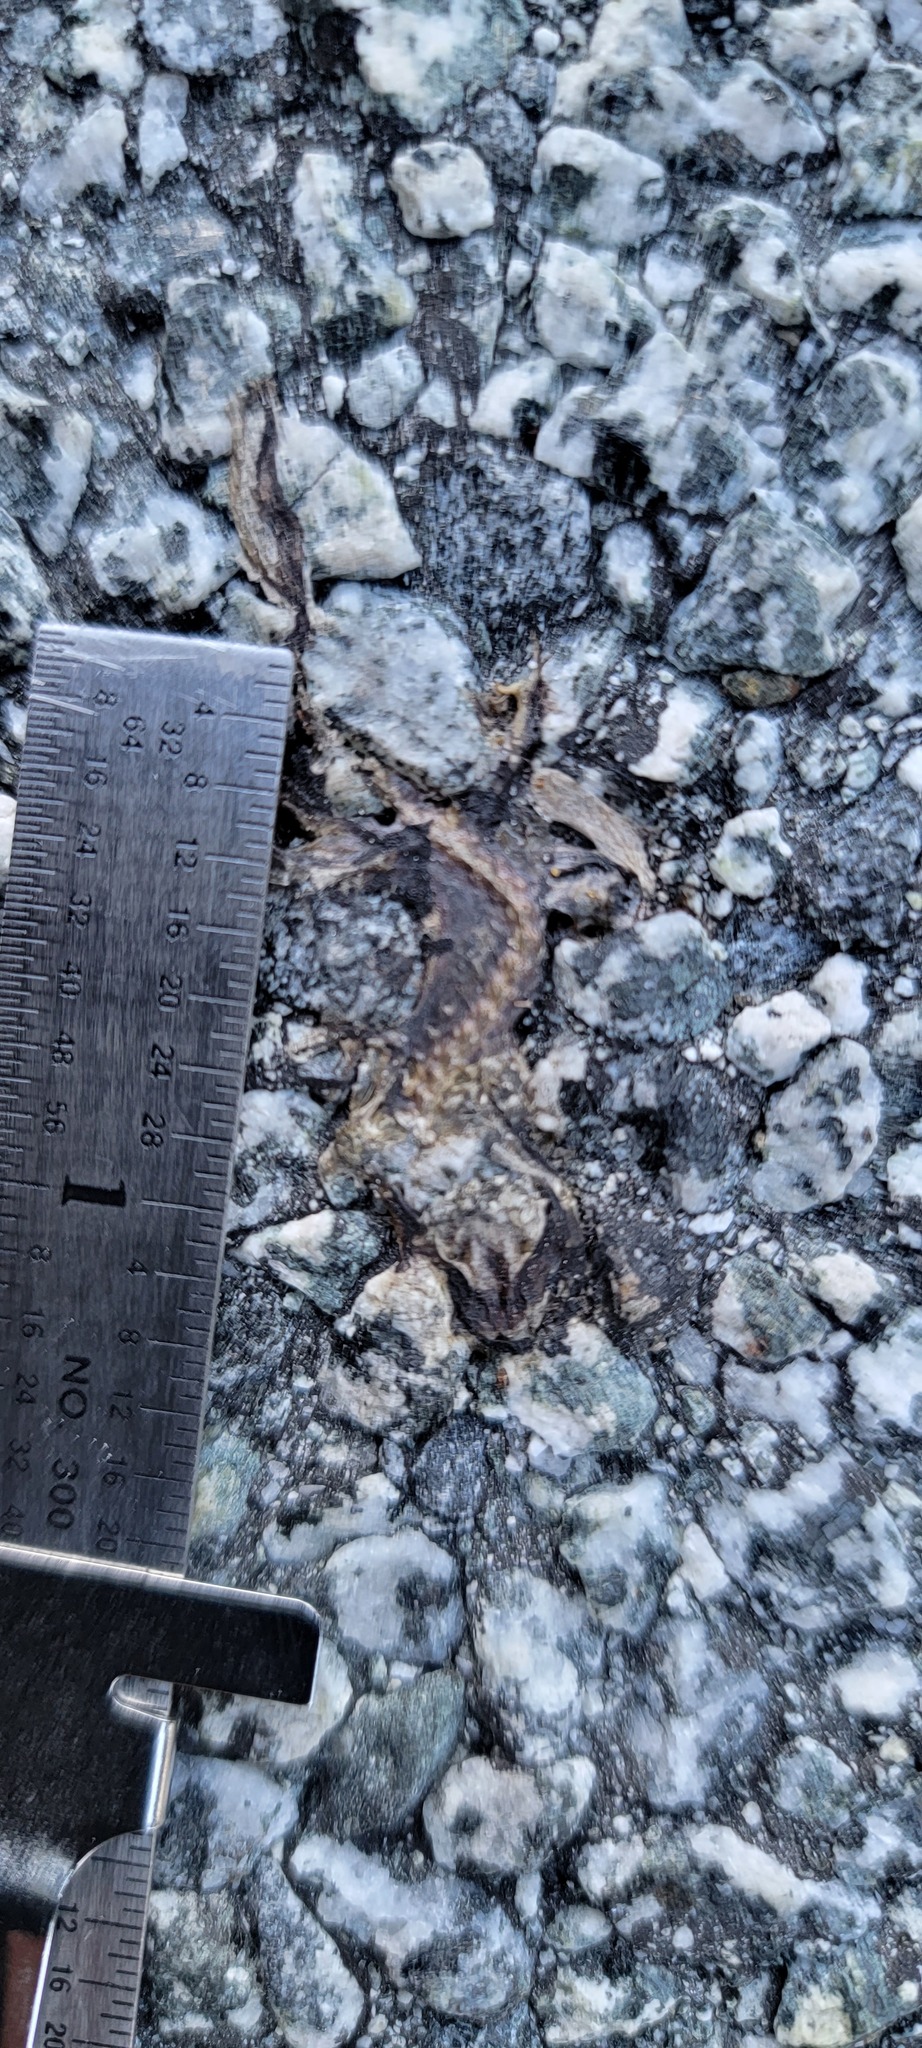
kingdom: Animalia
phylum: Chordata
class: Amphibia
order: Caudata
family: Salamandridae
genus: Taricha
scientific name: Taricha
